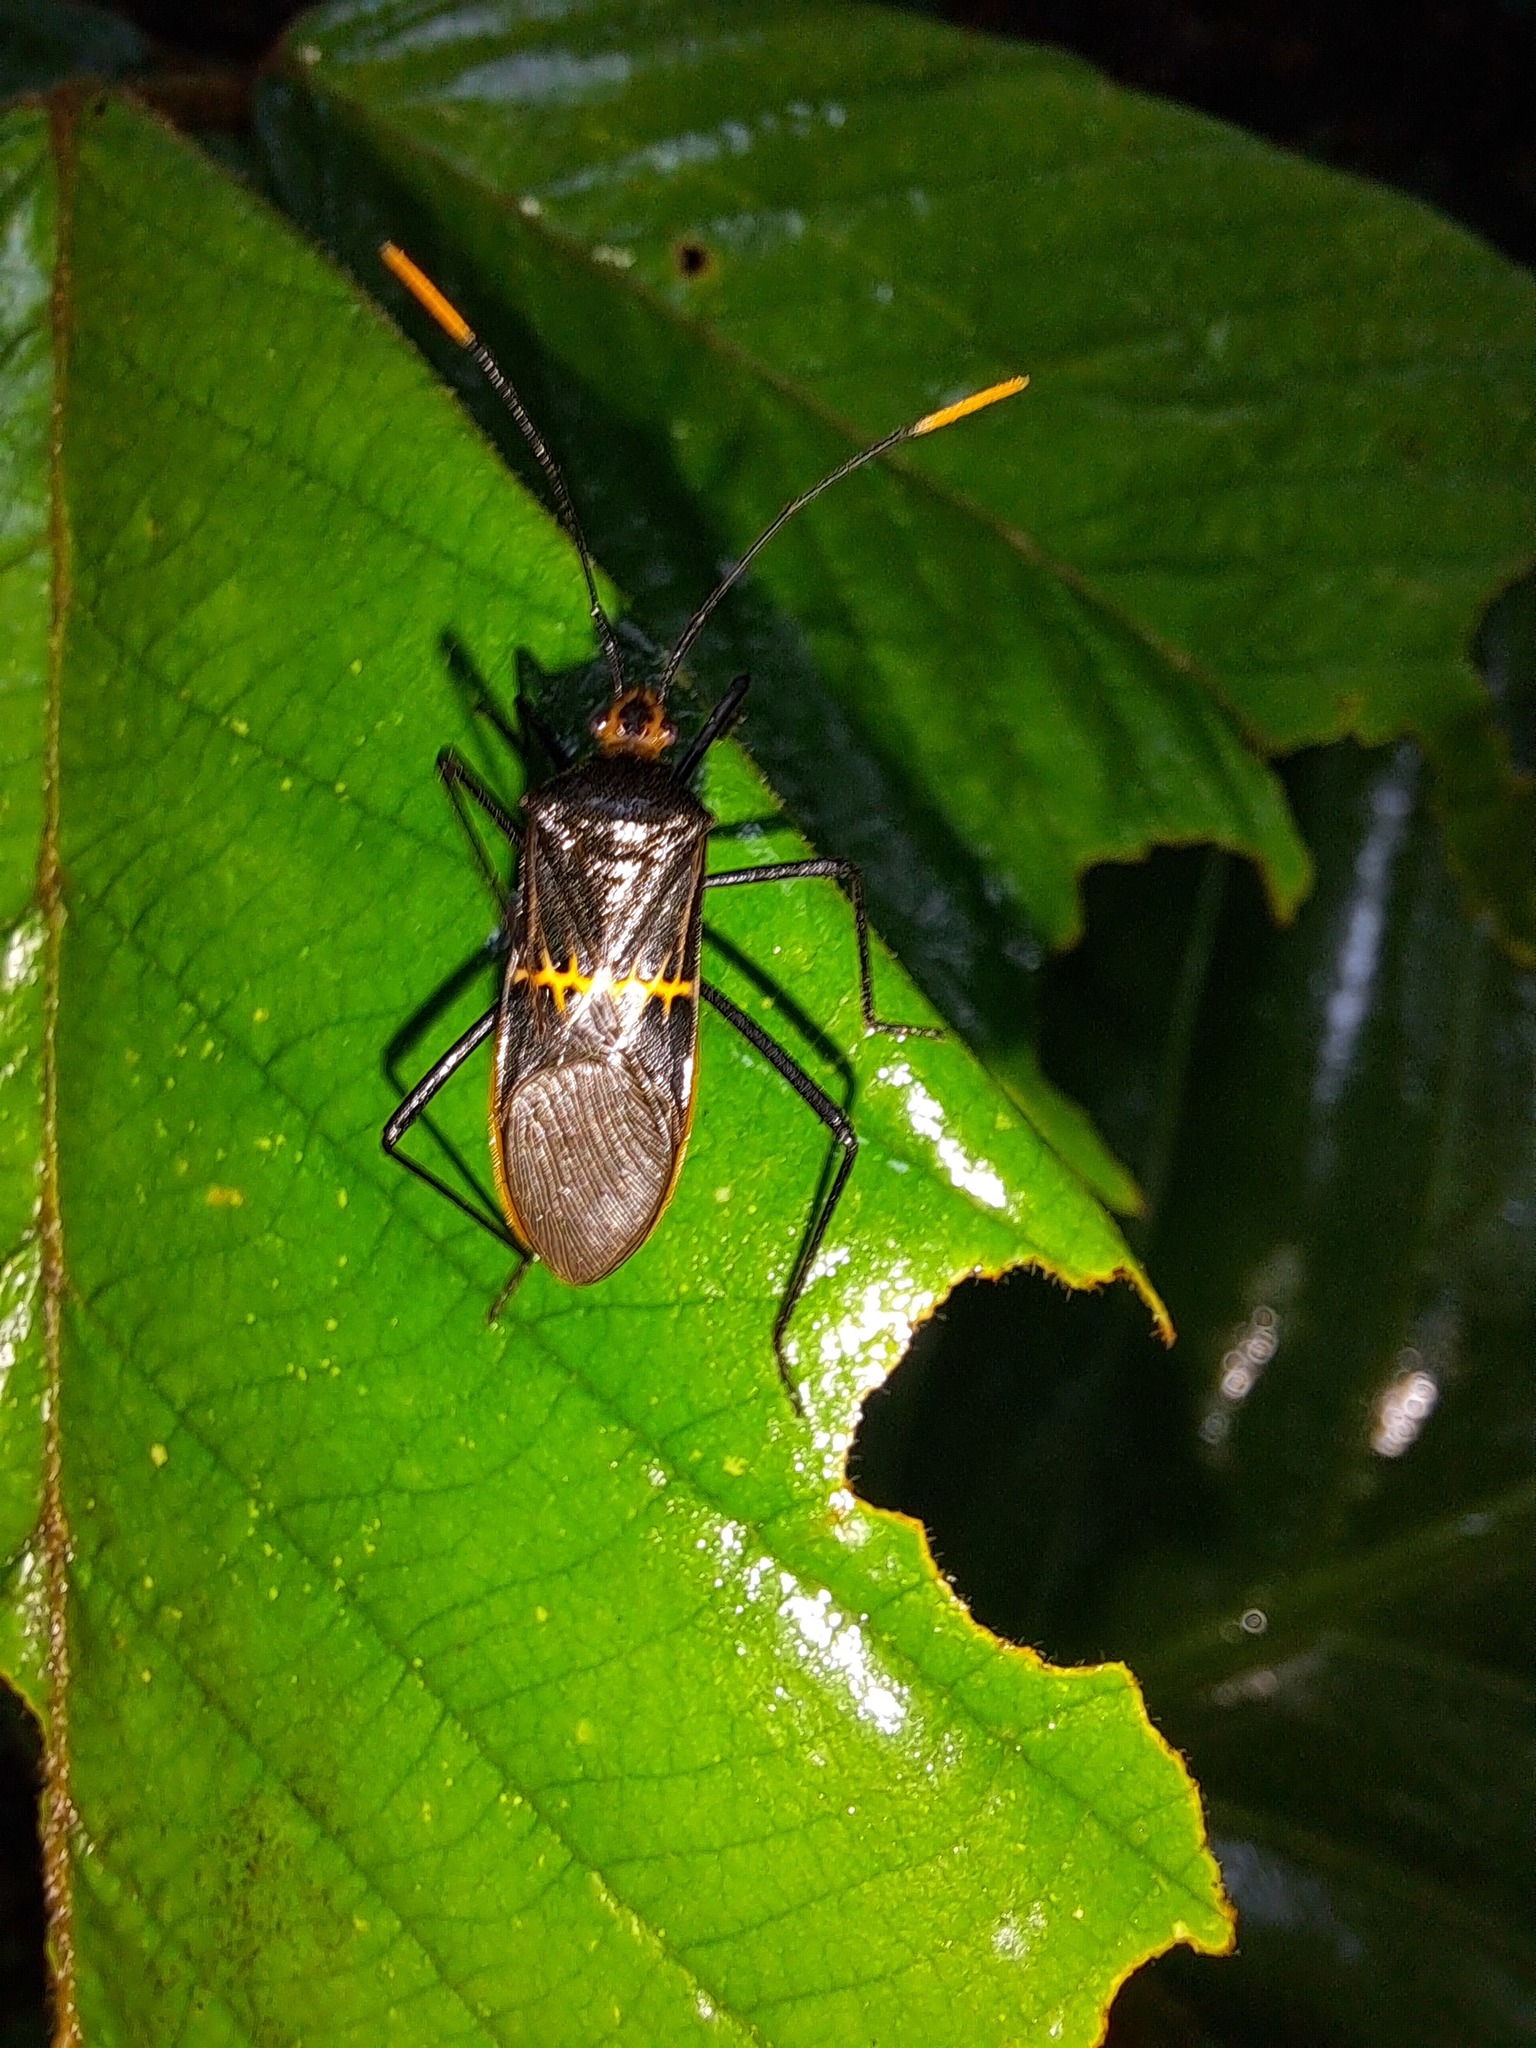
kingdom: Animalia
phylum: Arthropoda
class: Insecta
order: Hemiptera
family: Coreidae
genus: Leptoscelis
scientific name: Leptoscelis saepifera
